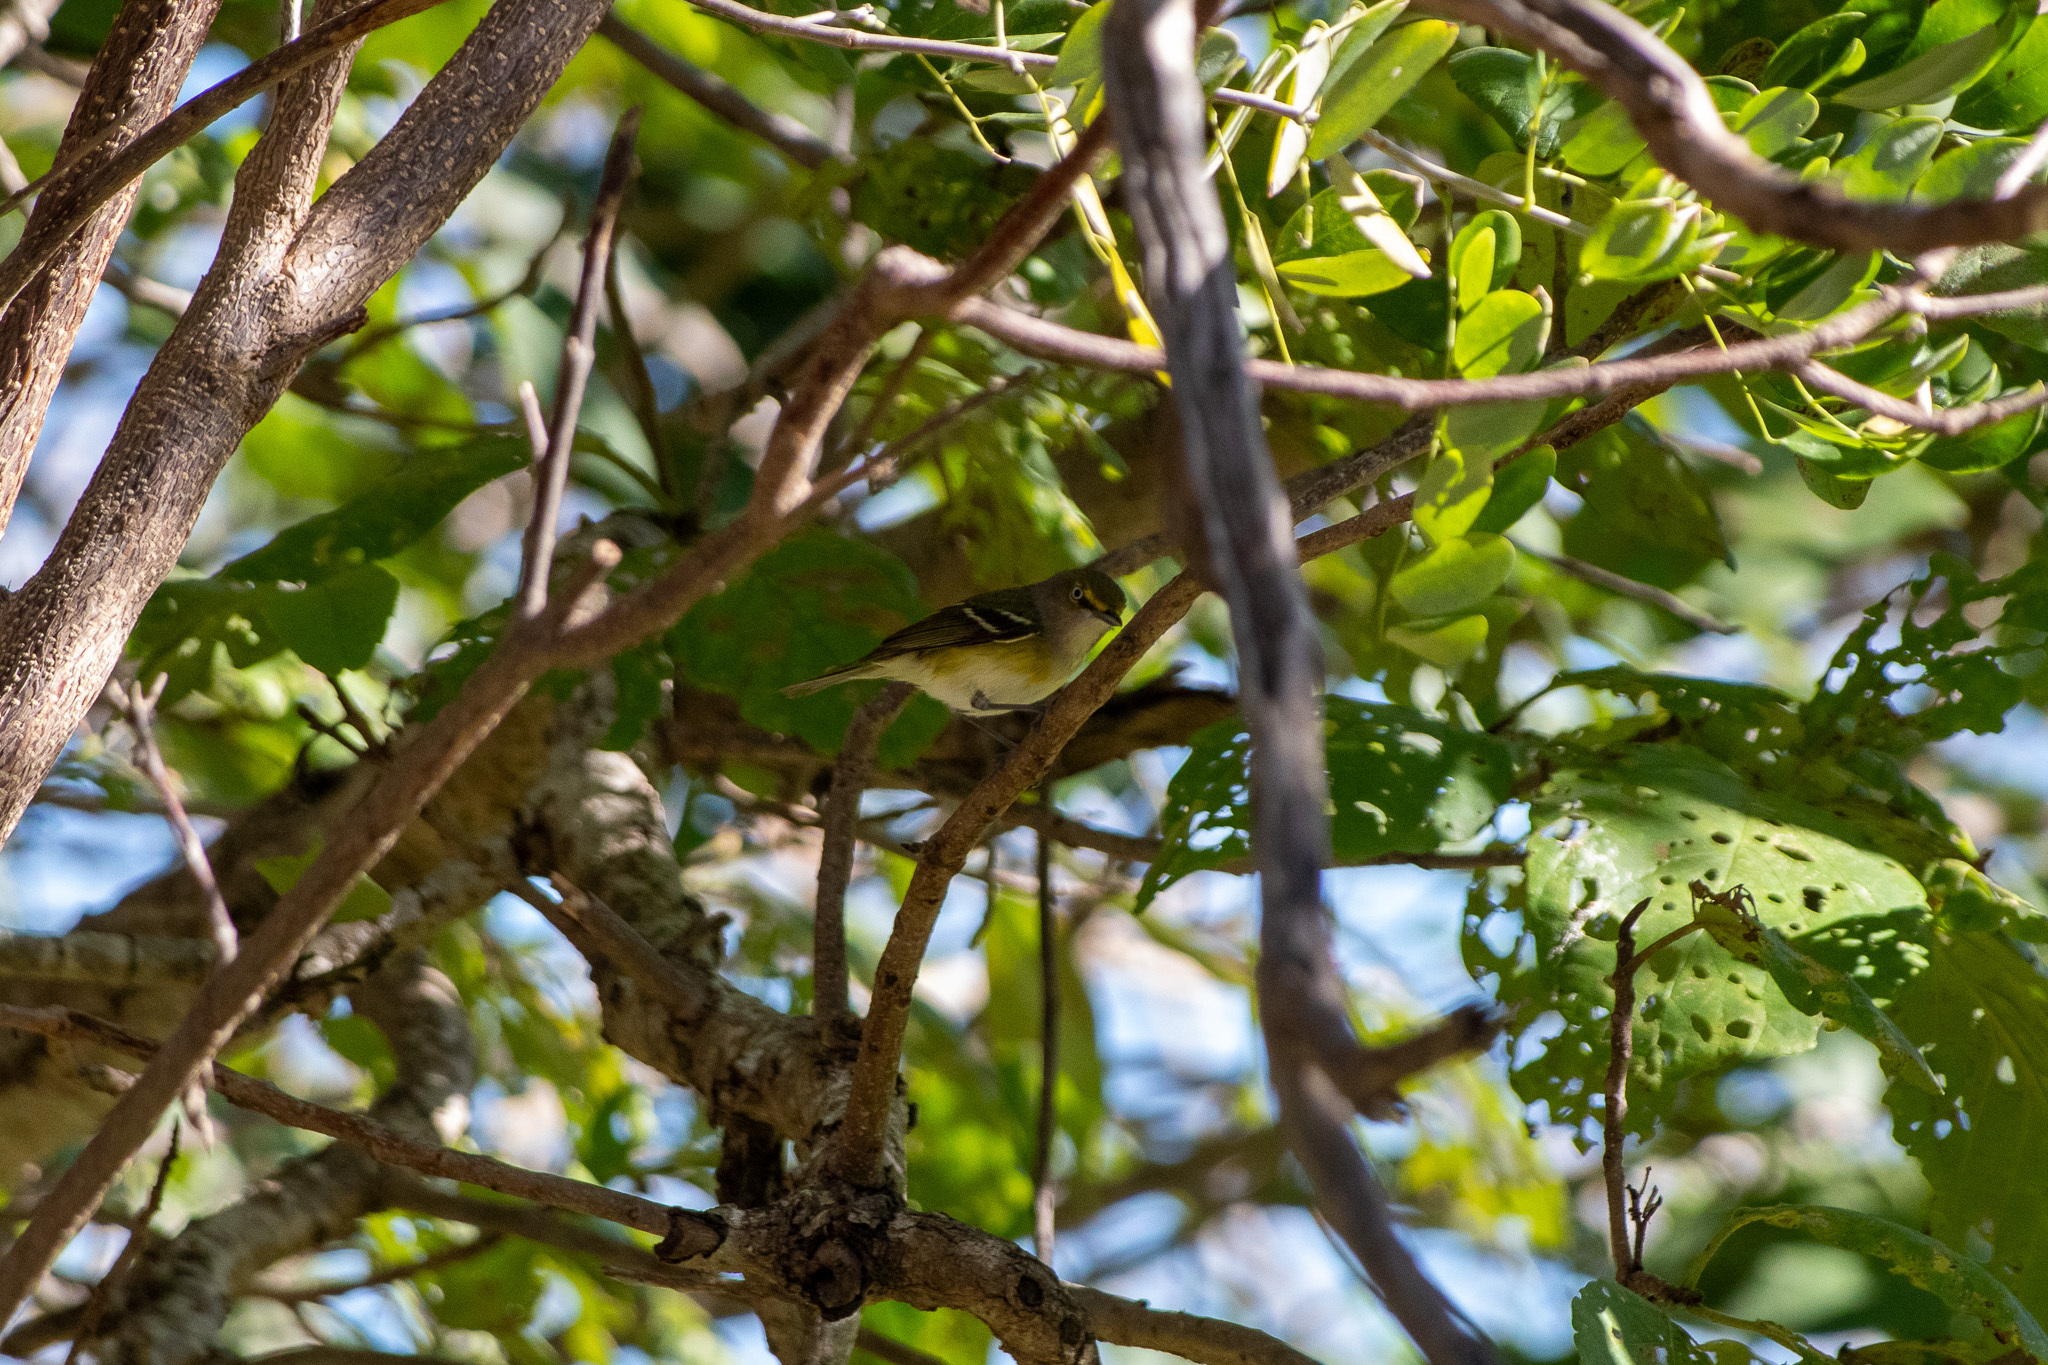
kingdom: Animalia
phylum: Chordata
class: Aves
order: Passeriformes
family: Vireonidae
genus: Vireo
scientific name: Vireo griseus
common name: White-eyed vireo
